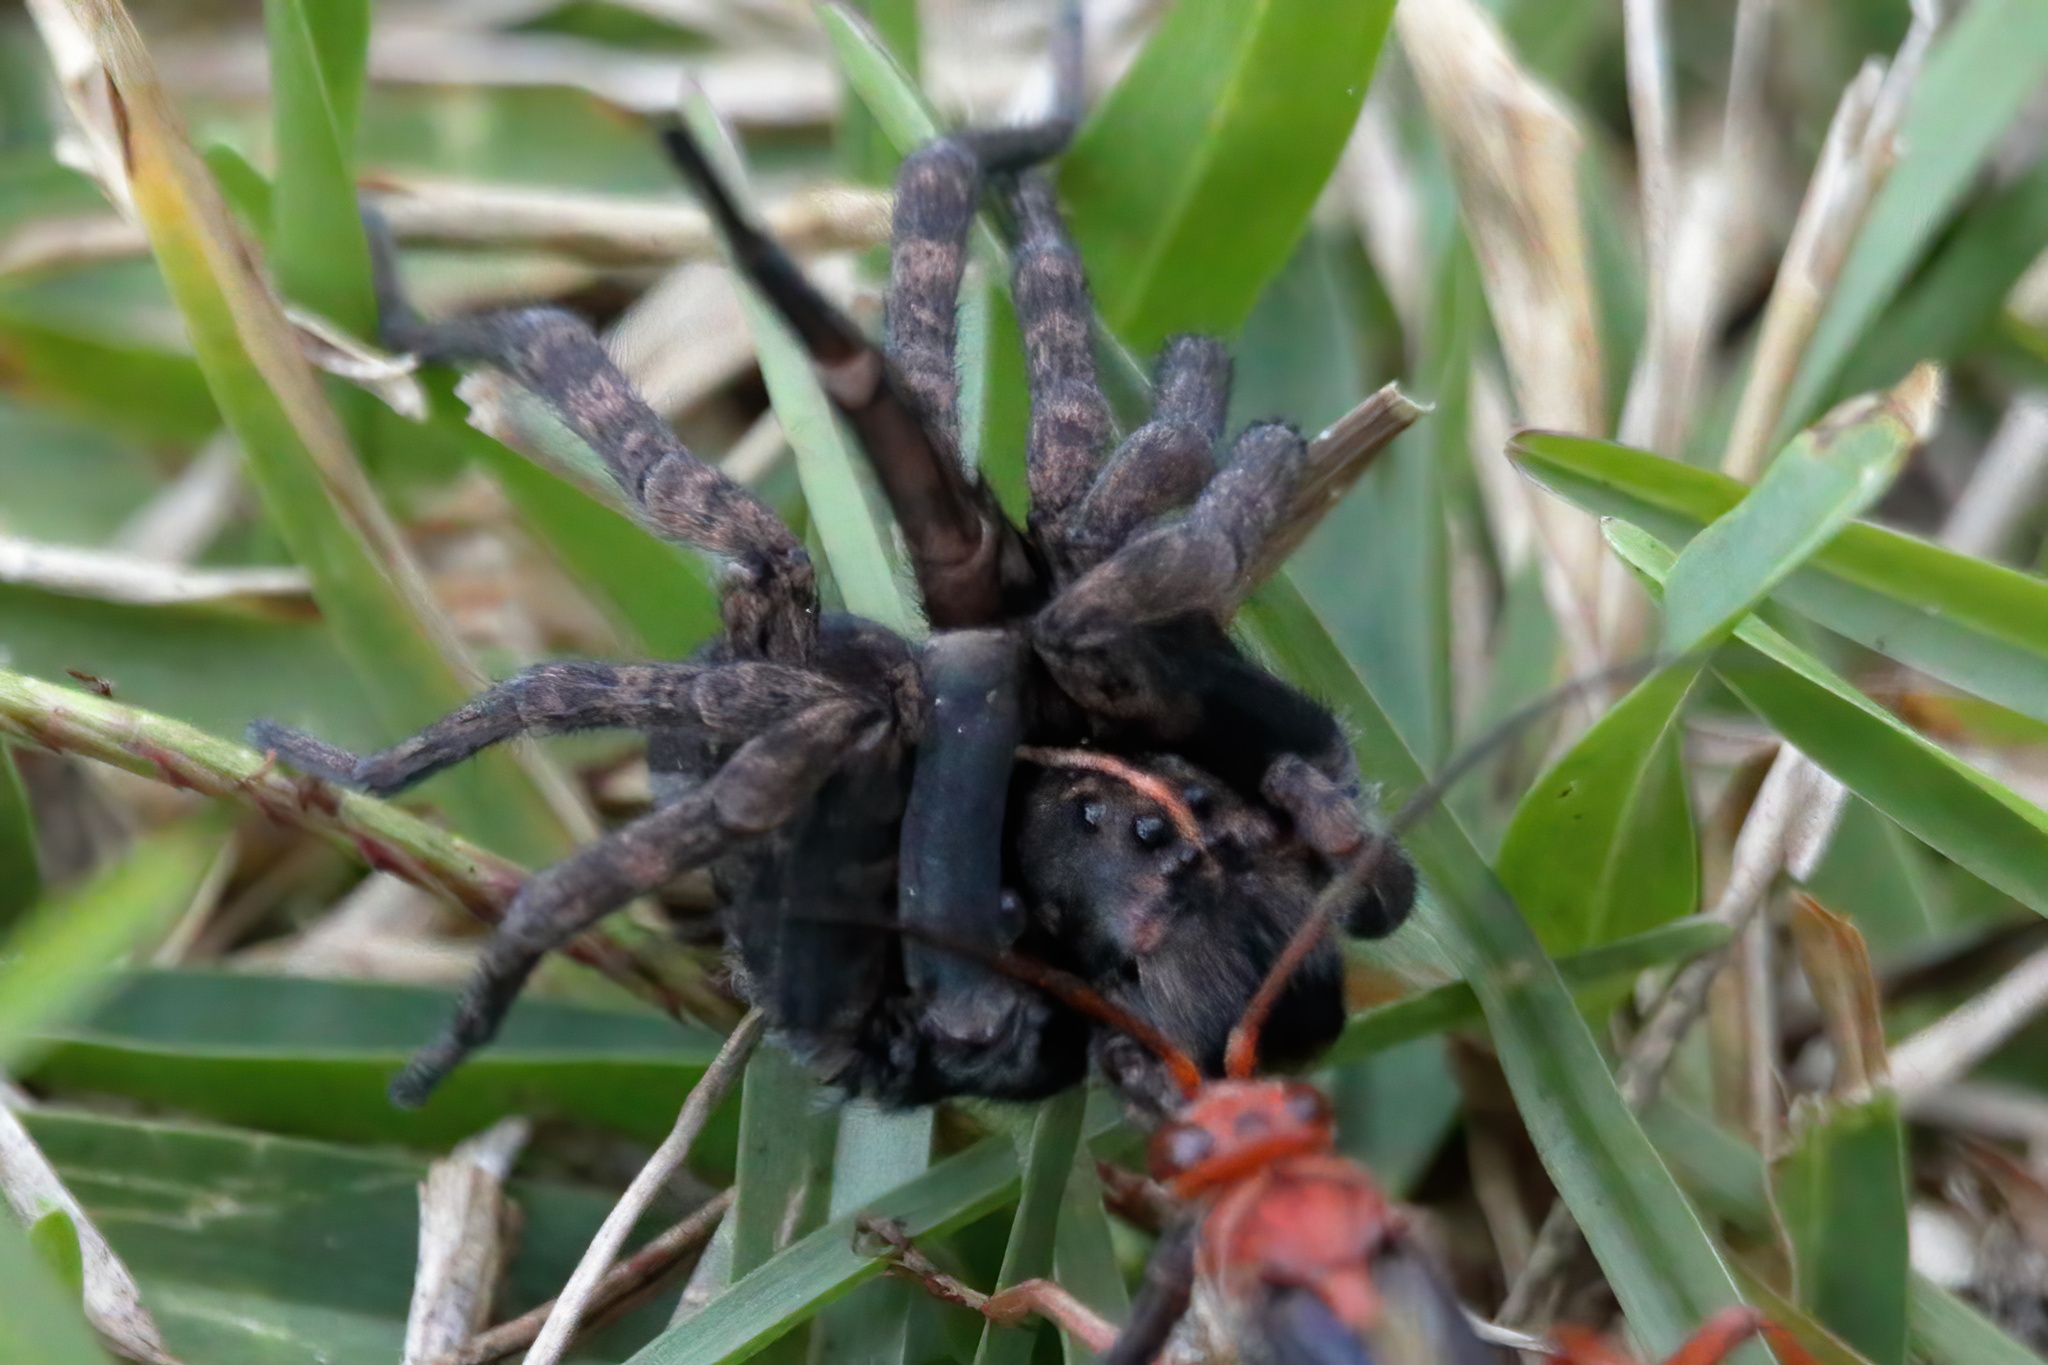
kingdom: Animalia
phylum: Arthropoda
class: Arachnida
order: Araneae
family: Lycosidae
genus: Tigrosa
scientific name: Tigrosa georgicola
